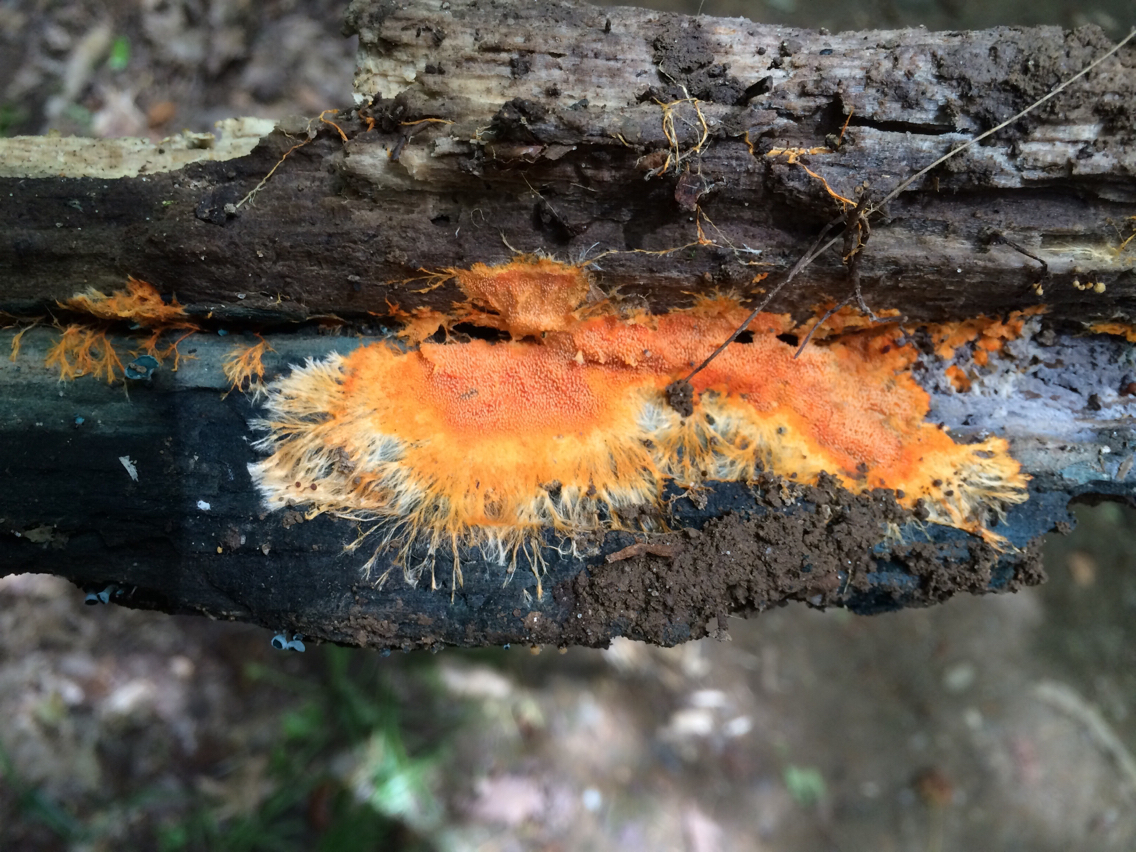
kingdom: Fungi
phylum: Basidiomycota
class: Agaricomycetes
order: Polyporales
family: Meruliaceae
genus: Hydnophlebia
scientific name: Hydnophlebia chrysorhiza
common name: Spreading yellow tooth
